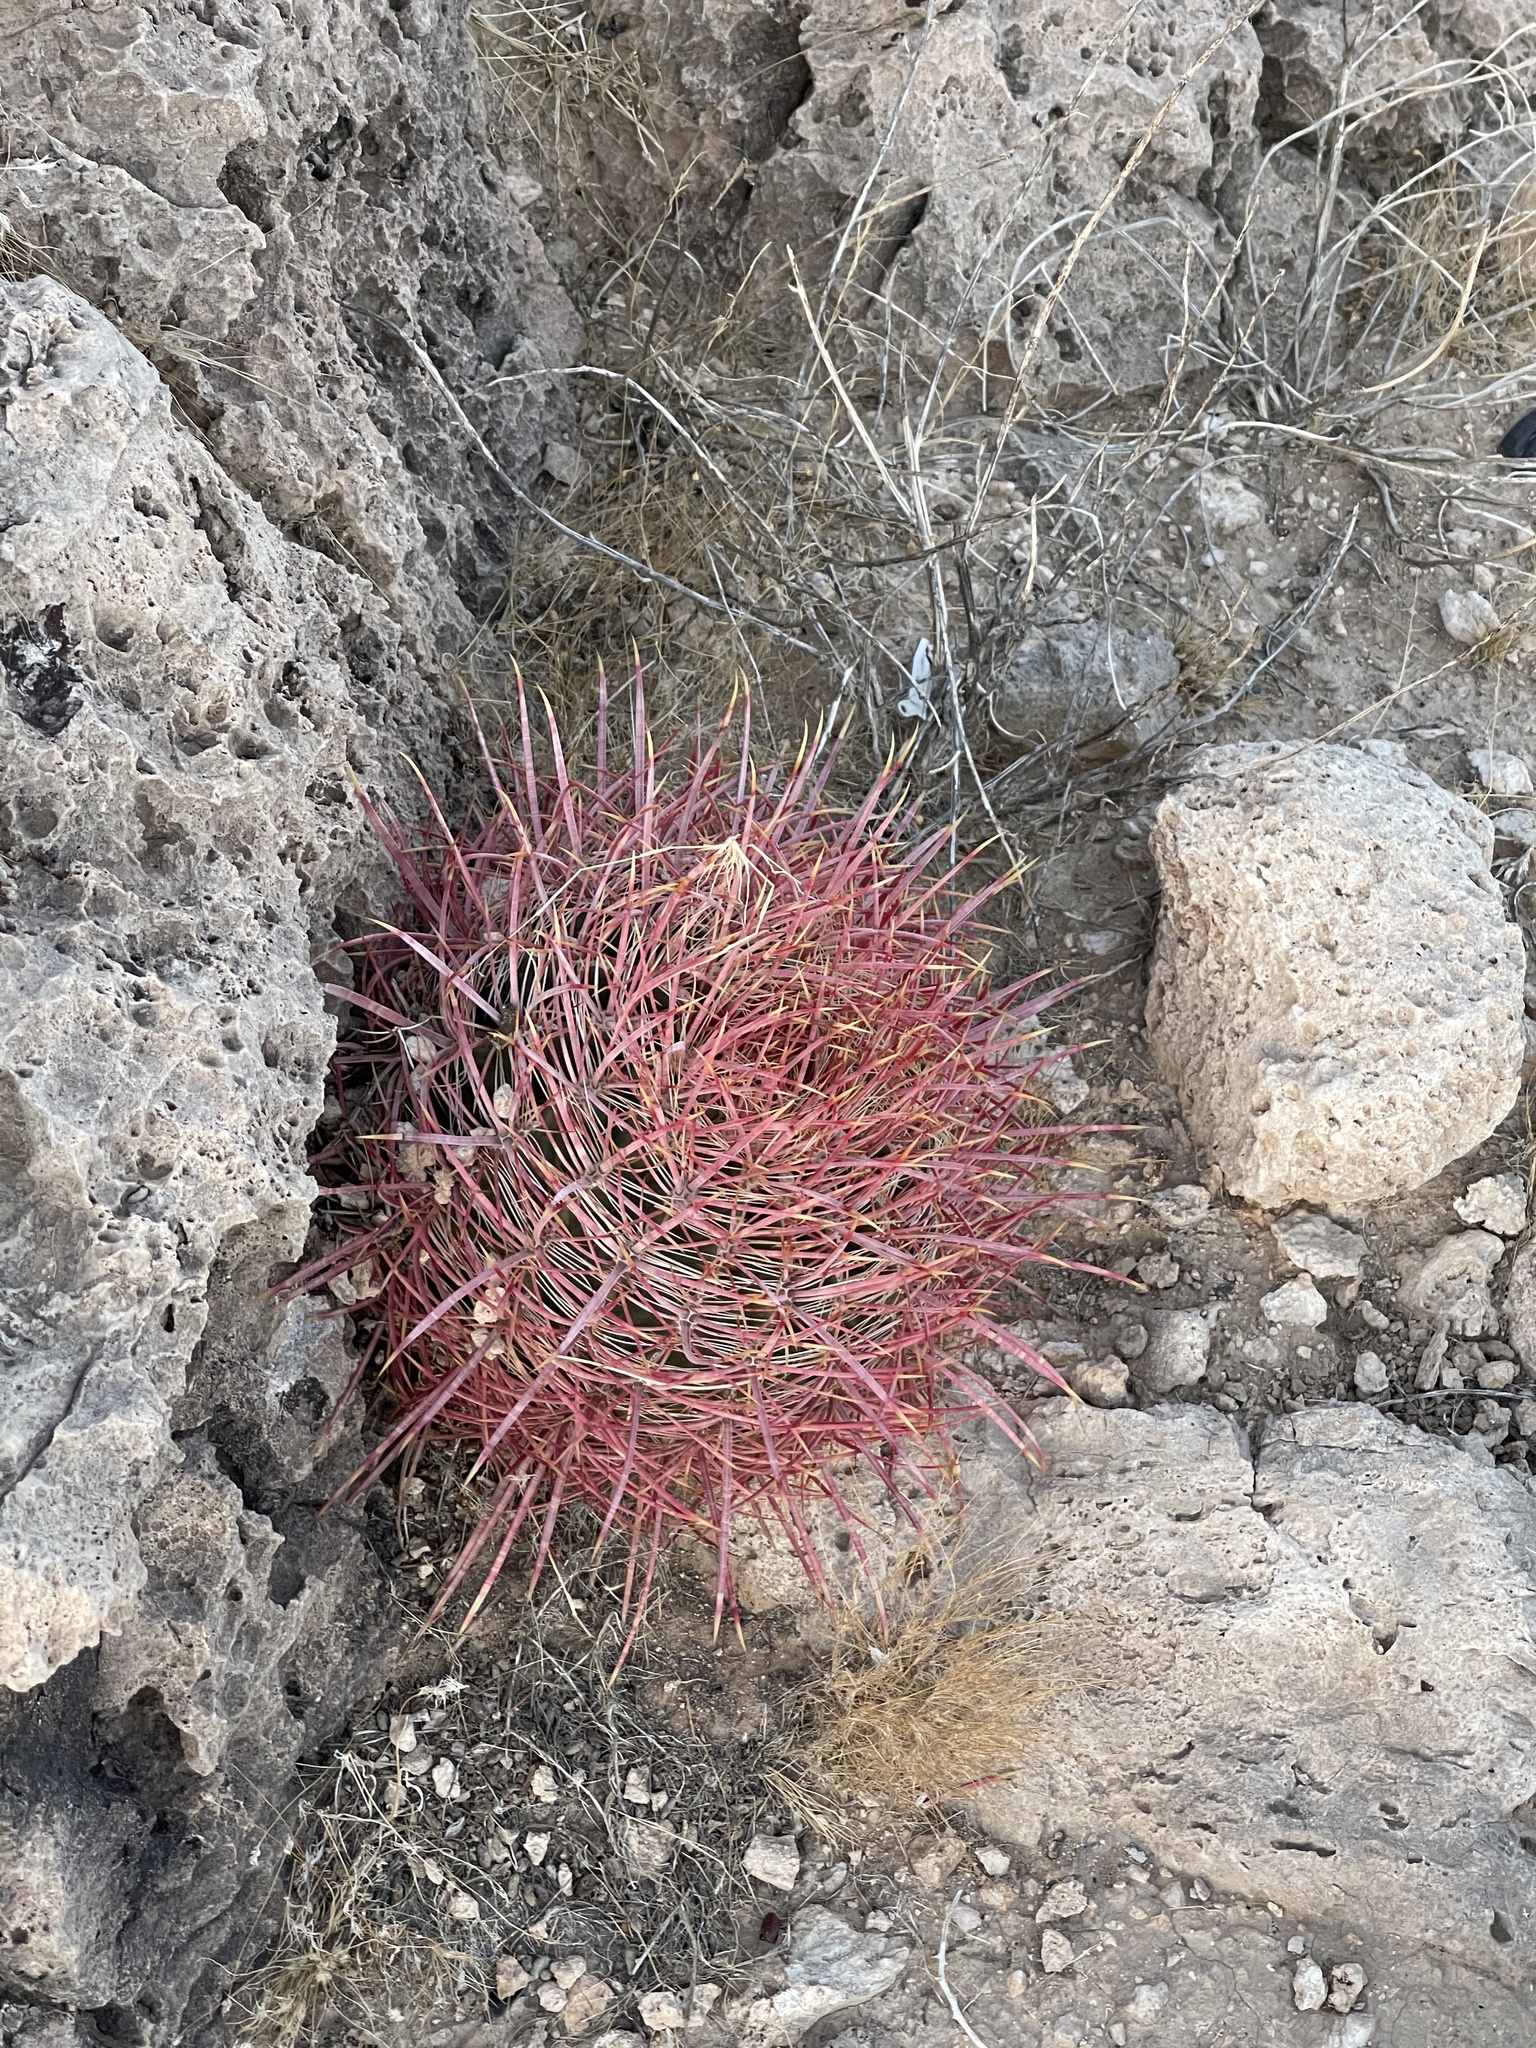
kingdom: Plantae
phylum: Tracheophyta
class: Magnoliopsida
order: Caryophyllales
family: Cactaceae
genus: Ferocactus
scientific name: Ferocactus cylindraceus
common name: California barrel cactus
